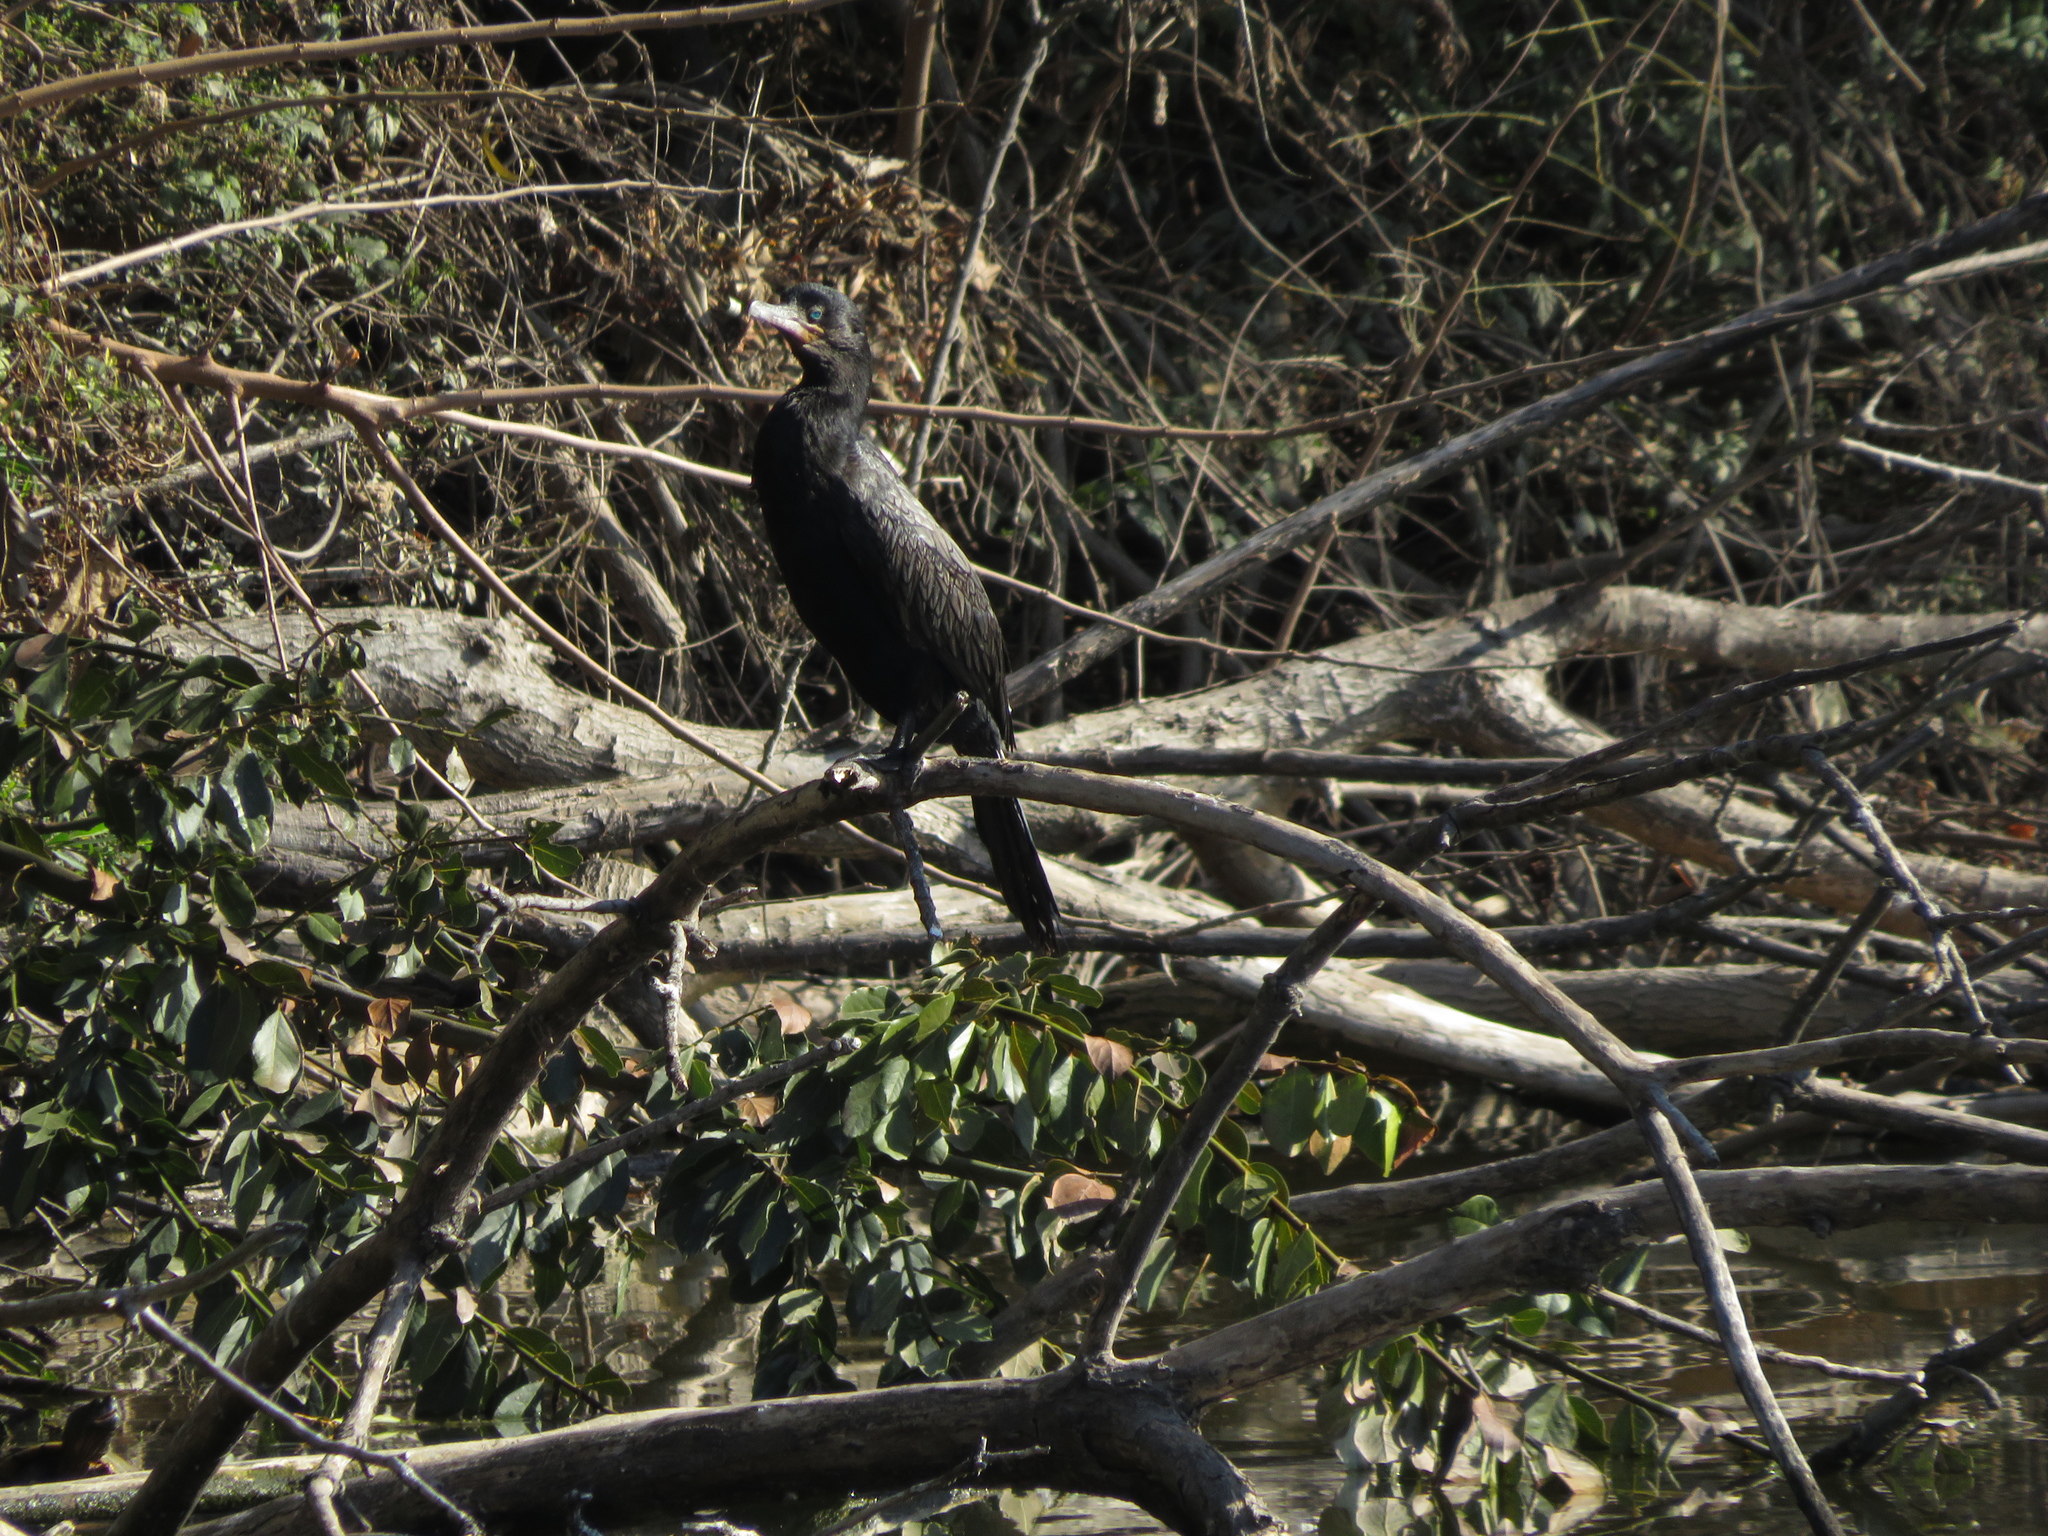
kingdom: Animalia
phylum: Chordata
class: Aves
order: Suliformes
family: Phalacrocoracidae
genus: Phalacrocorax
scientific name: Phalacrocorax brasilianus
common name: Neotropic cormorant
